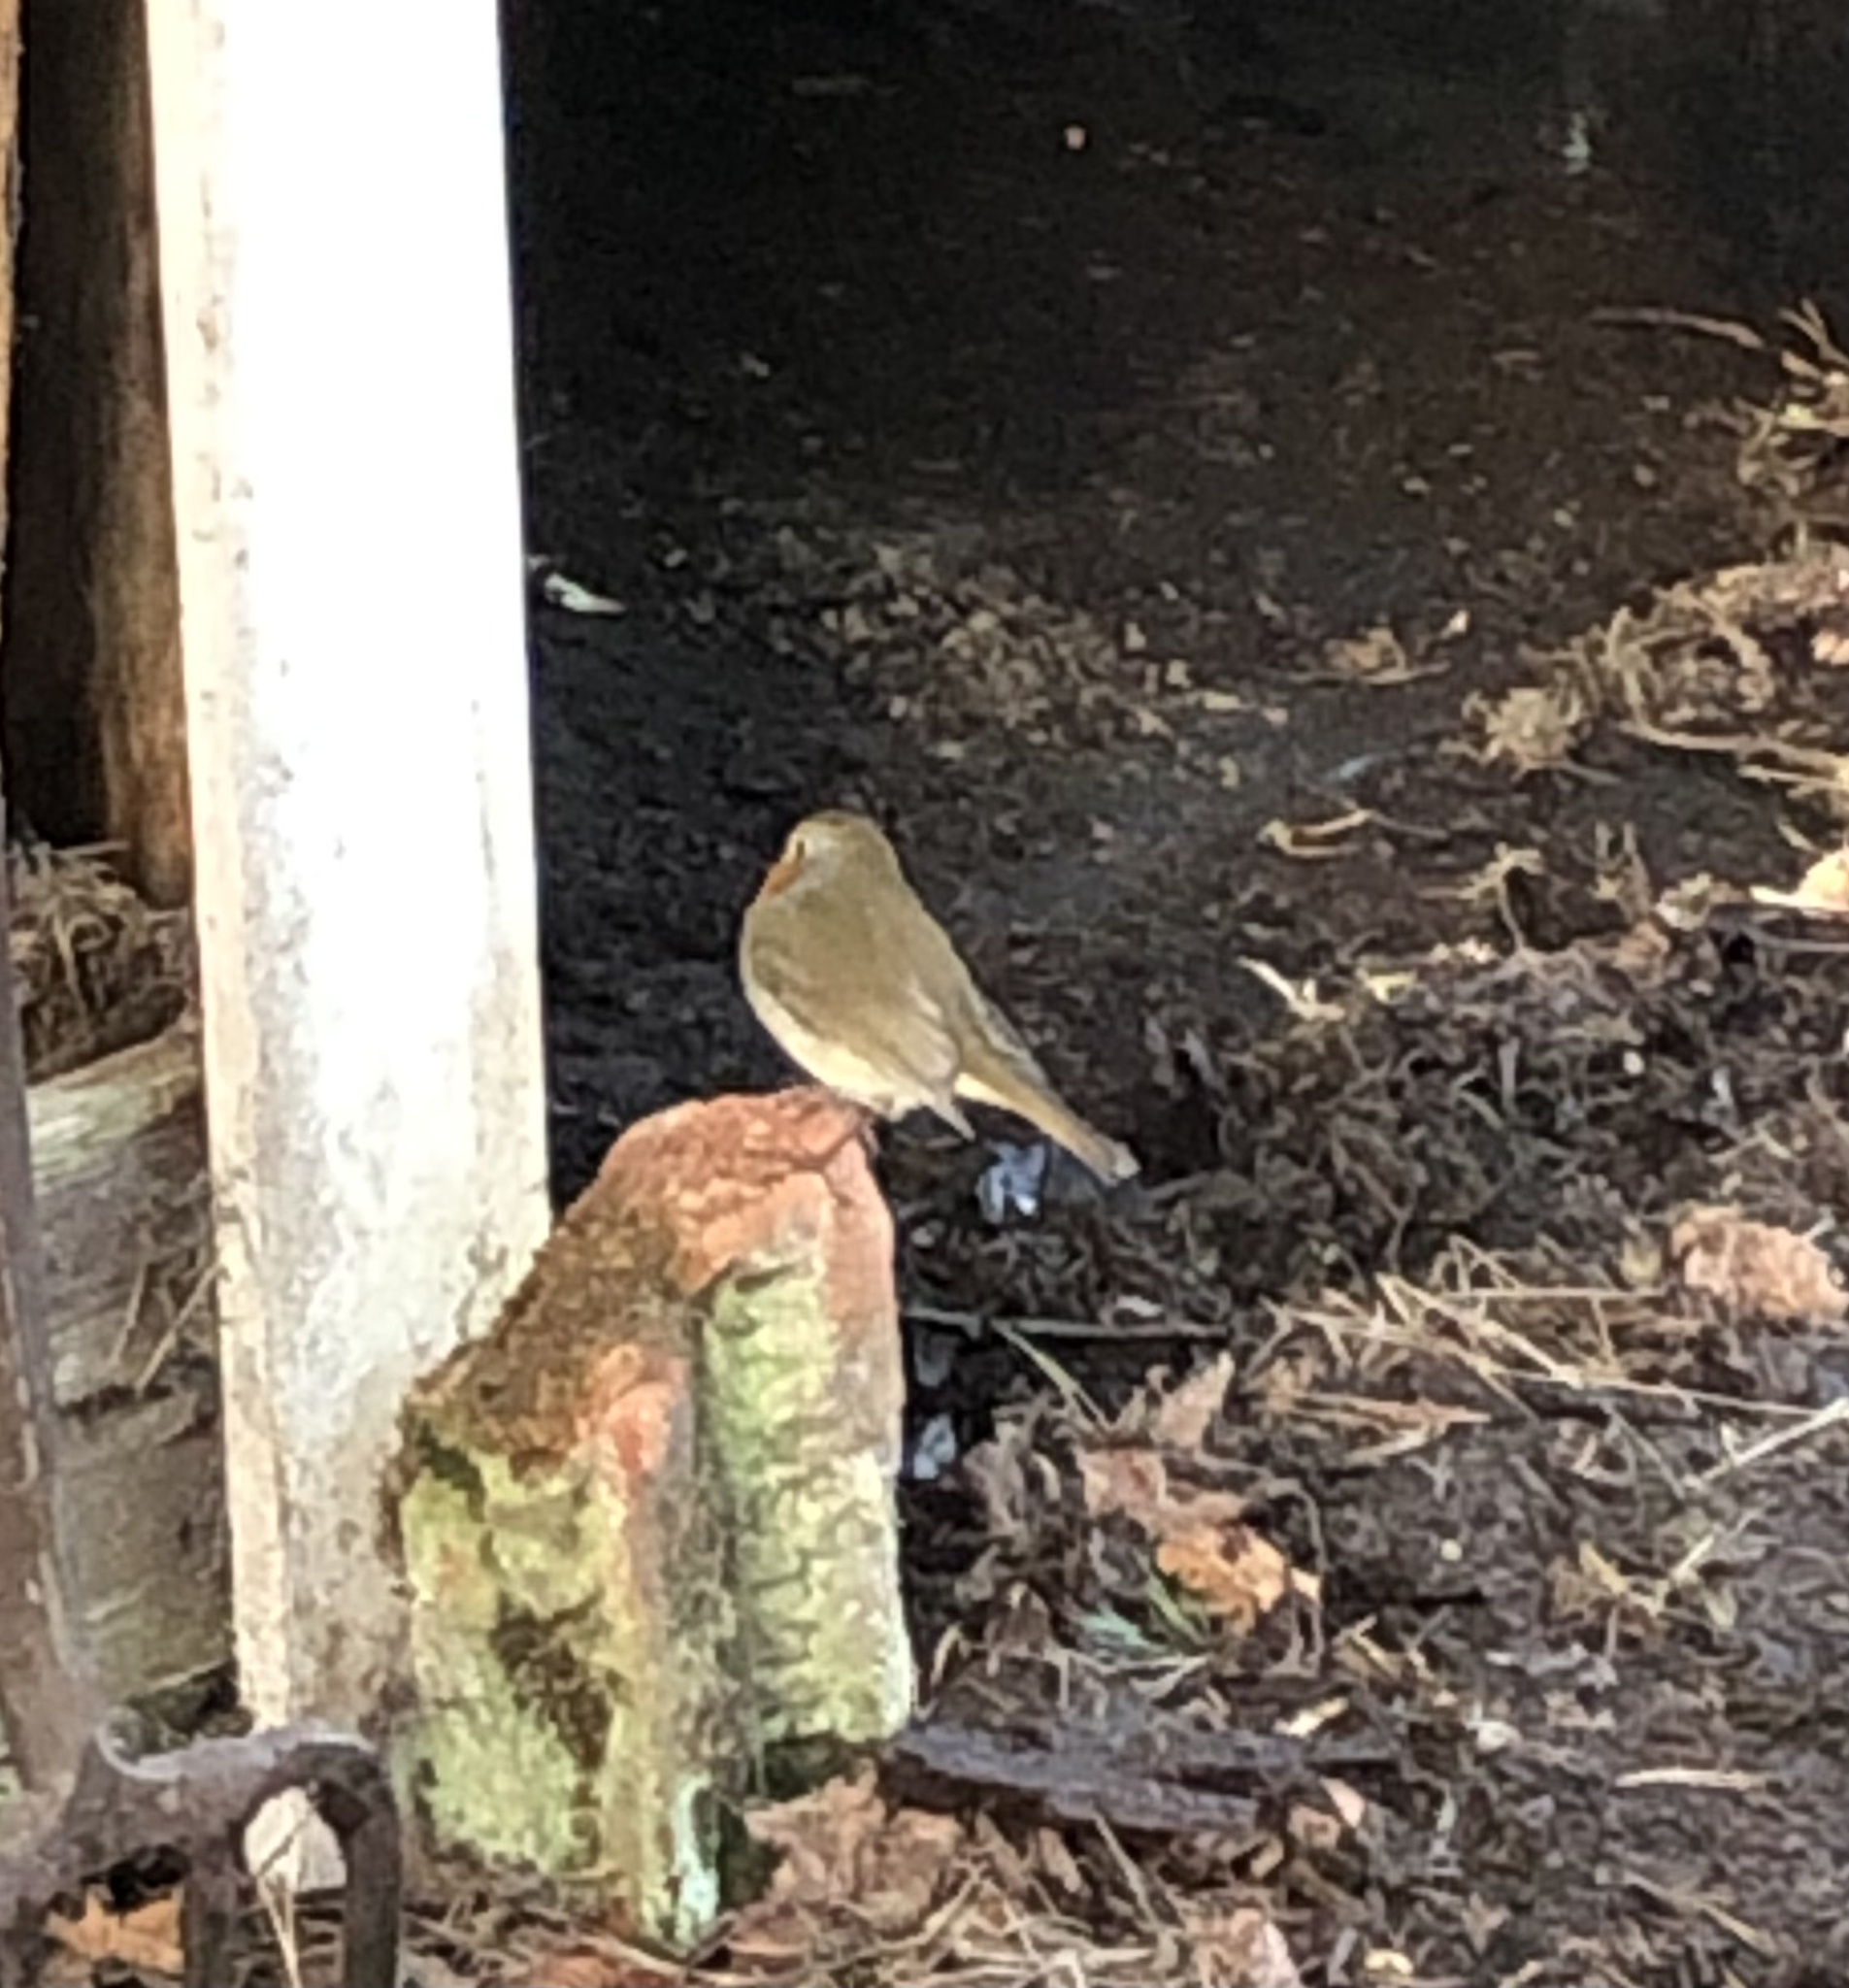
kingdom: Animalia
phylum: Chordata
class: Aves
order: Passeriformes
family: Muscicapidae
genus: Erithacus
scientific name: Erithacus rubecula
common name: European robin
